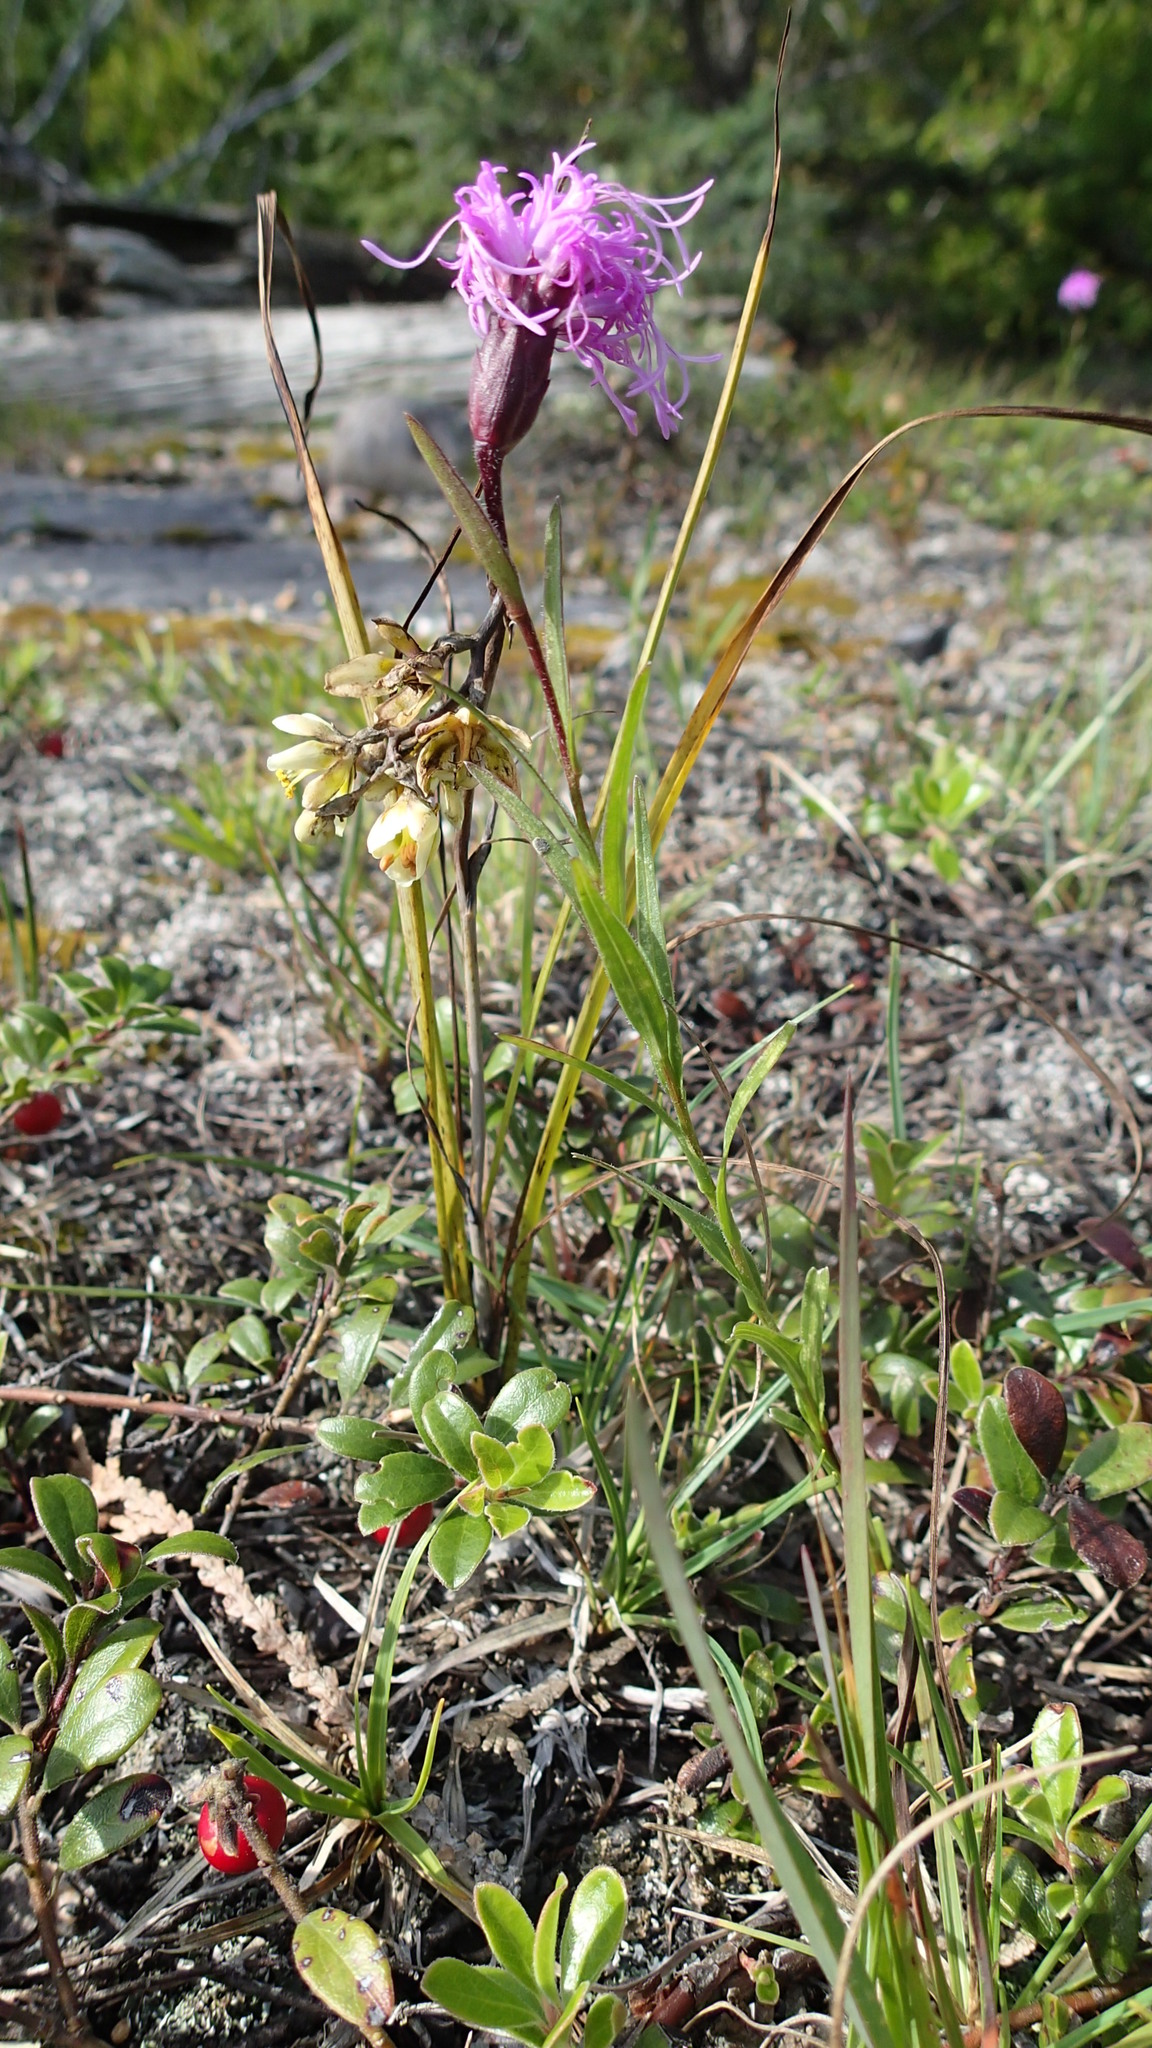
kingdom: Plantae
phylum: Tracheophyta
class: Magnoliopsida
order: Asterales
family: Asteraceae
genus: Liatris
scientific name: Liatris cylindracea
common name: Few-head blazingstar
